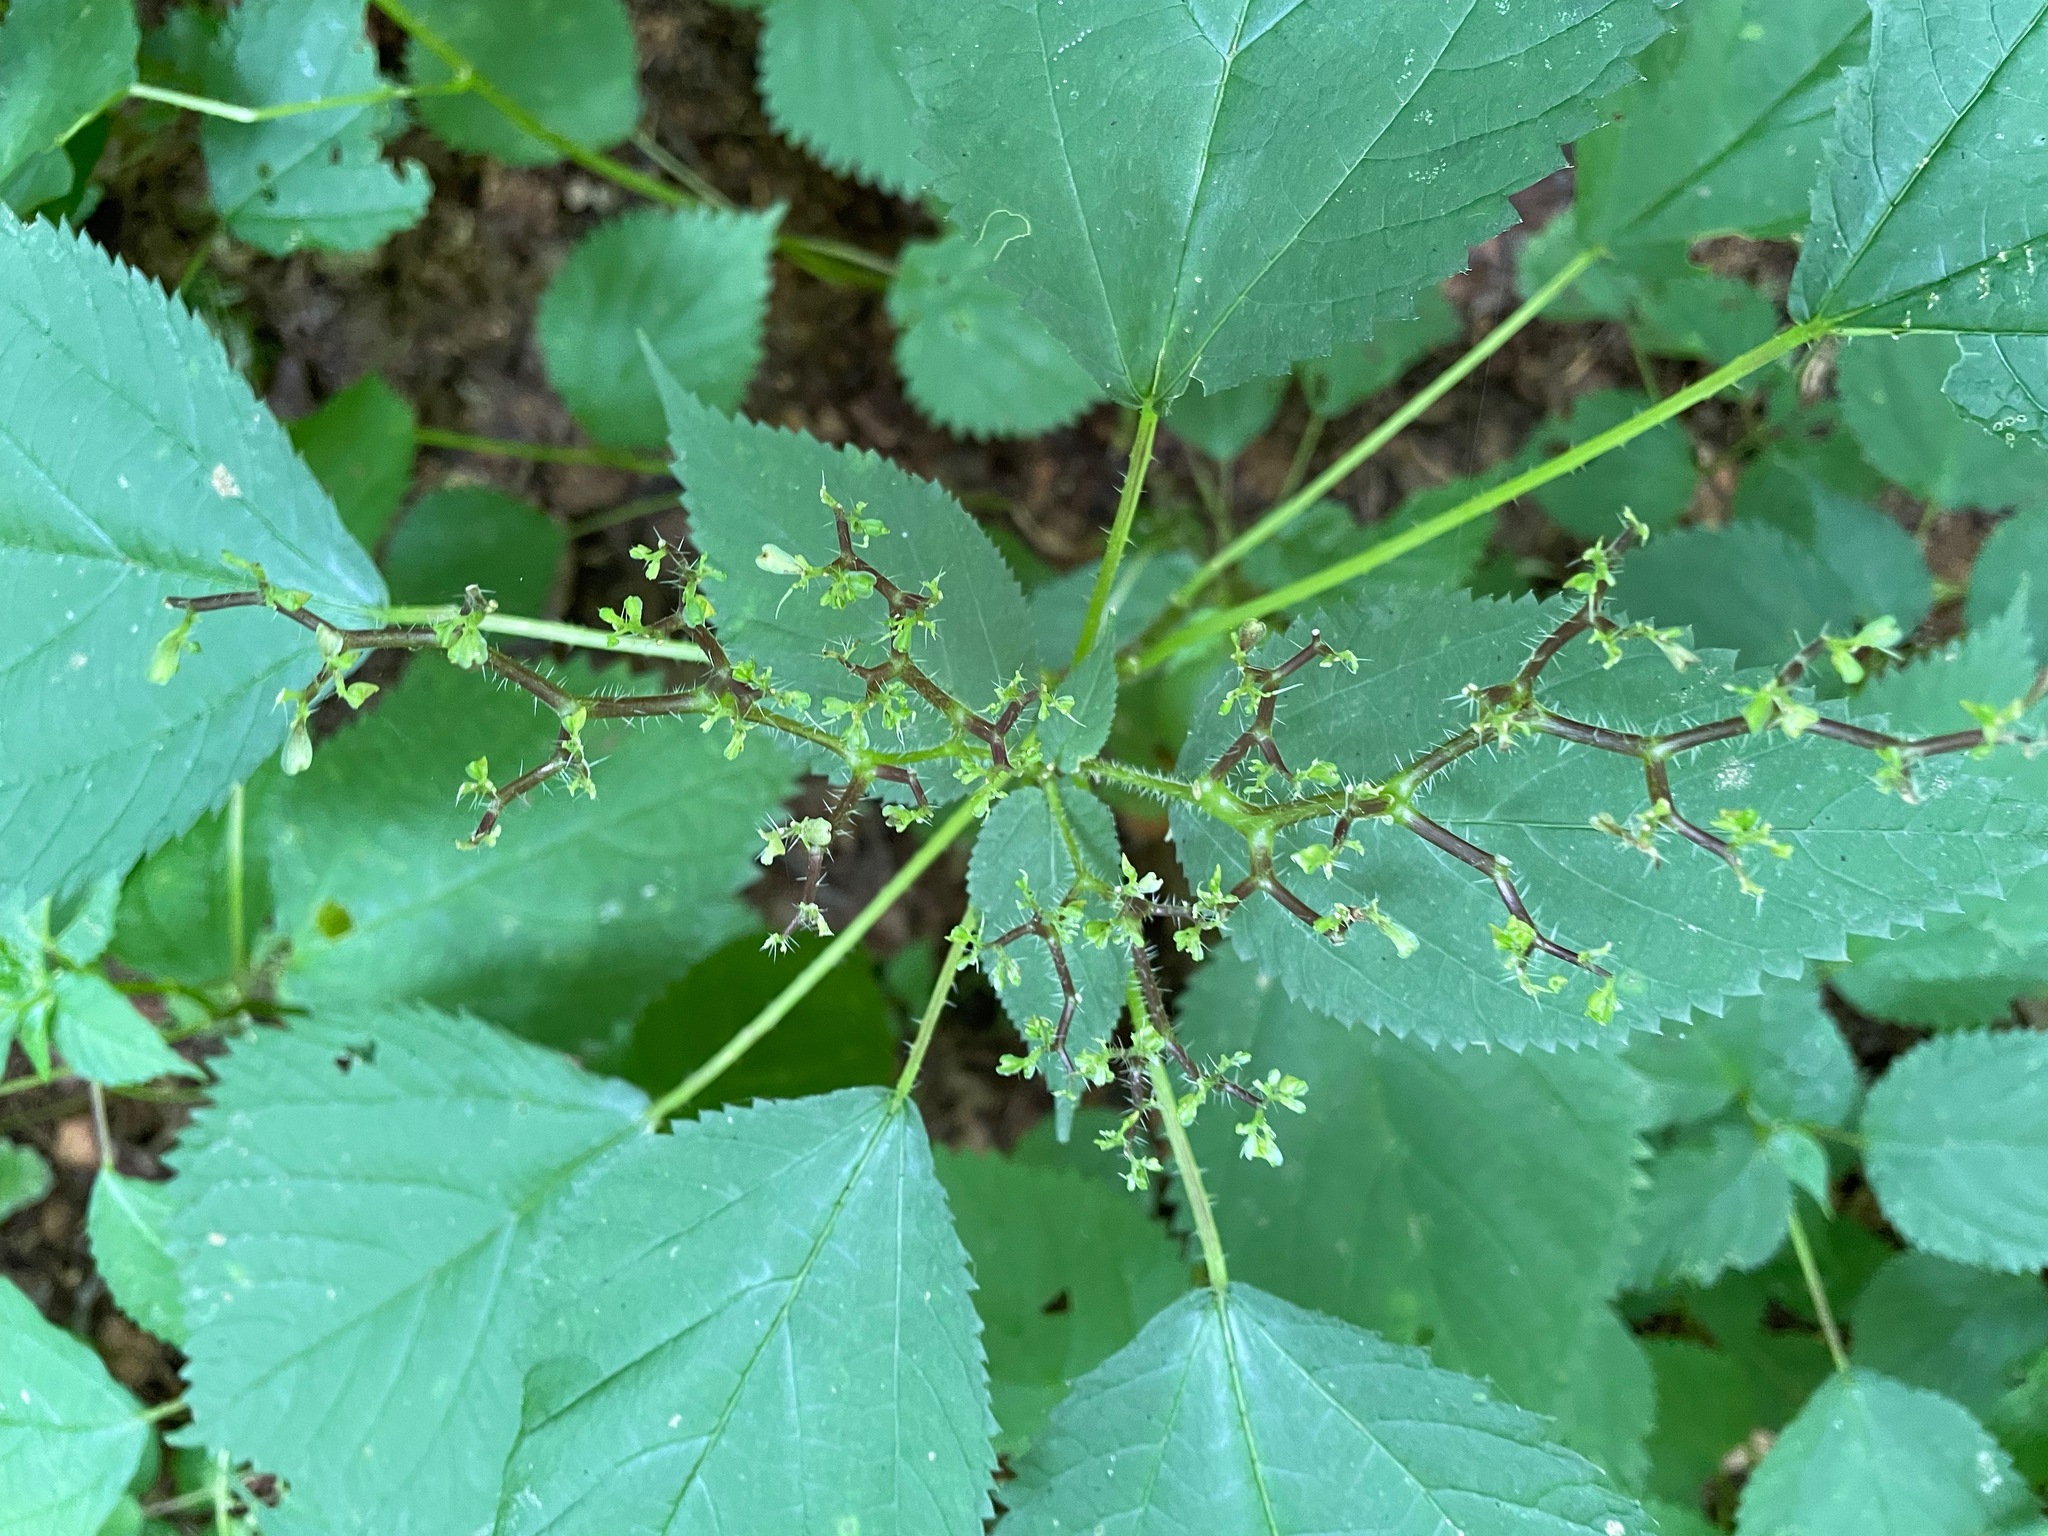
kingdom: Plantae
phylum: Tracheophyta
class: Magnoliopsida
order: Rosales
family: Urticaceae
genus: Laportea
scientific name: Laportea canadensis
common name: Canada nettle
